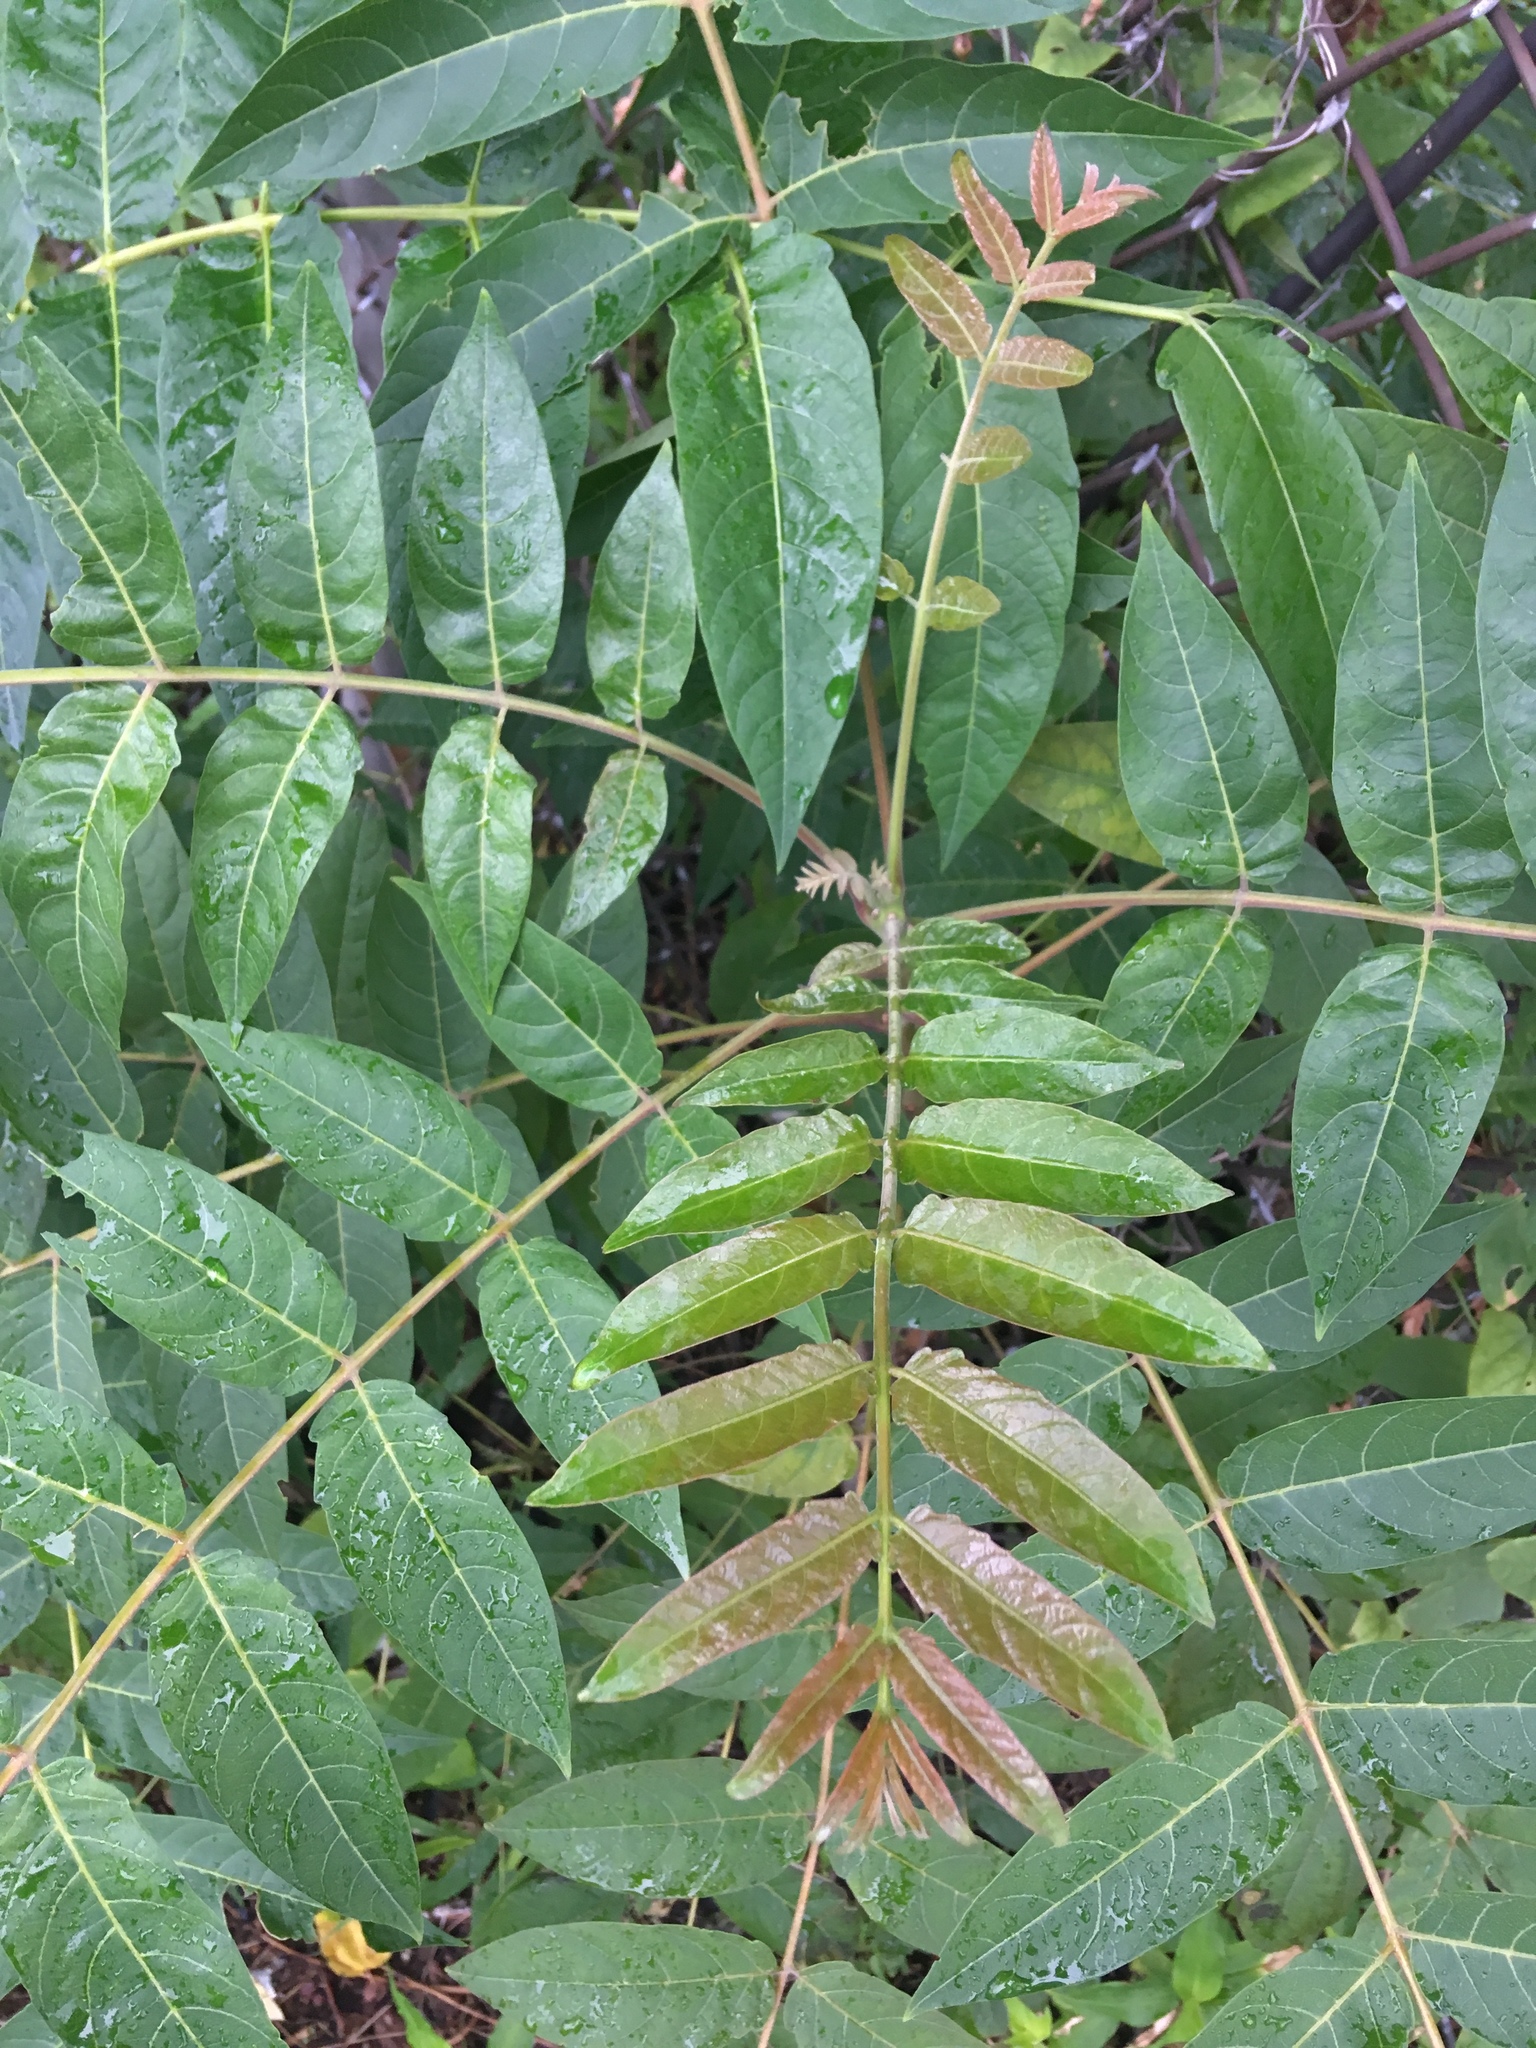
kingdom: Plantae
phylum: Tracheophyta
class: Magnoliopsida
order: Sapindales
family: Simaroubaceae
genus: Ailanthus
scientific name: Ailanthus altissima
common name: Tree-of-heaven
